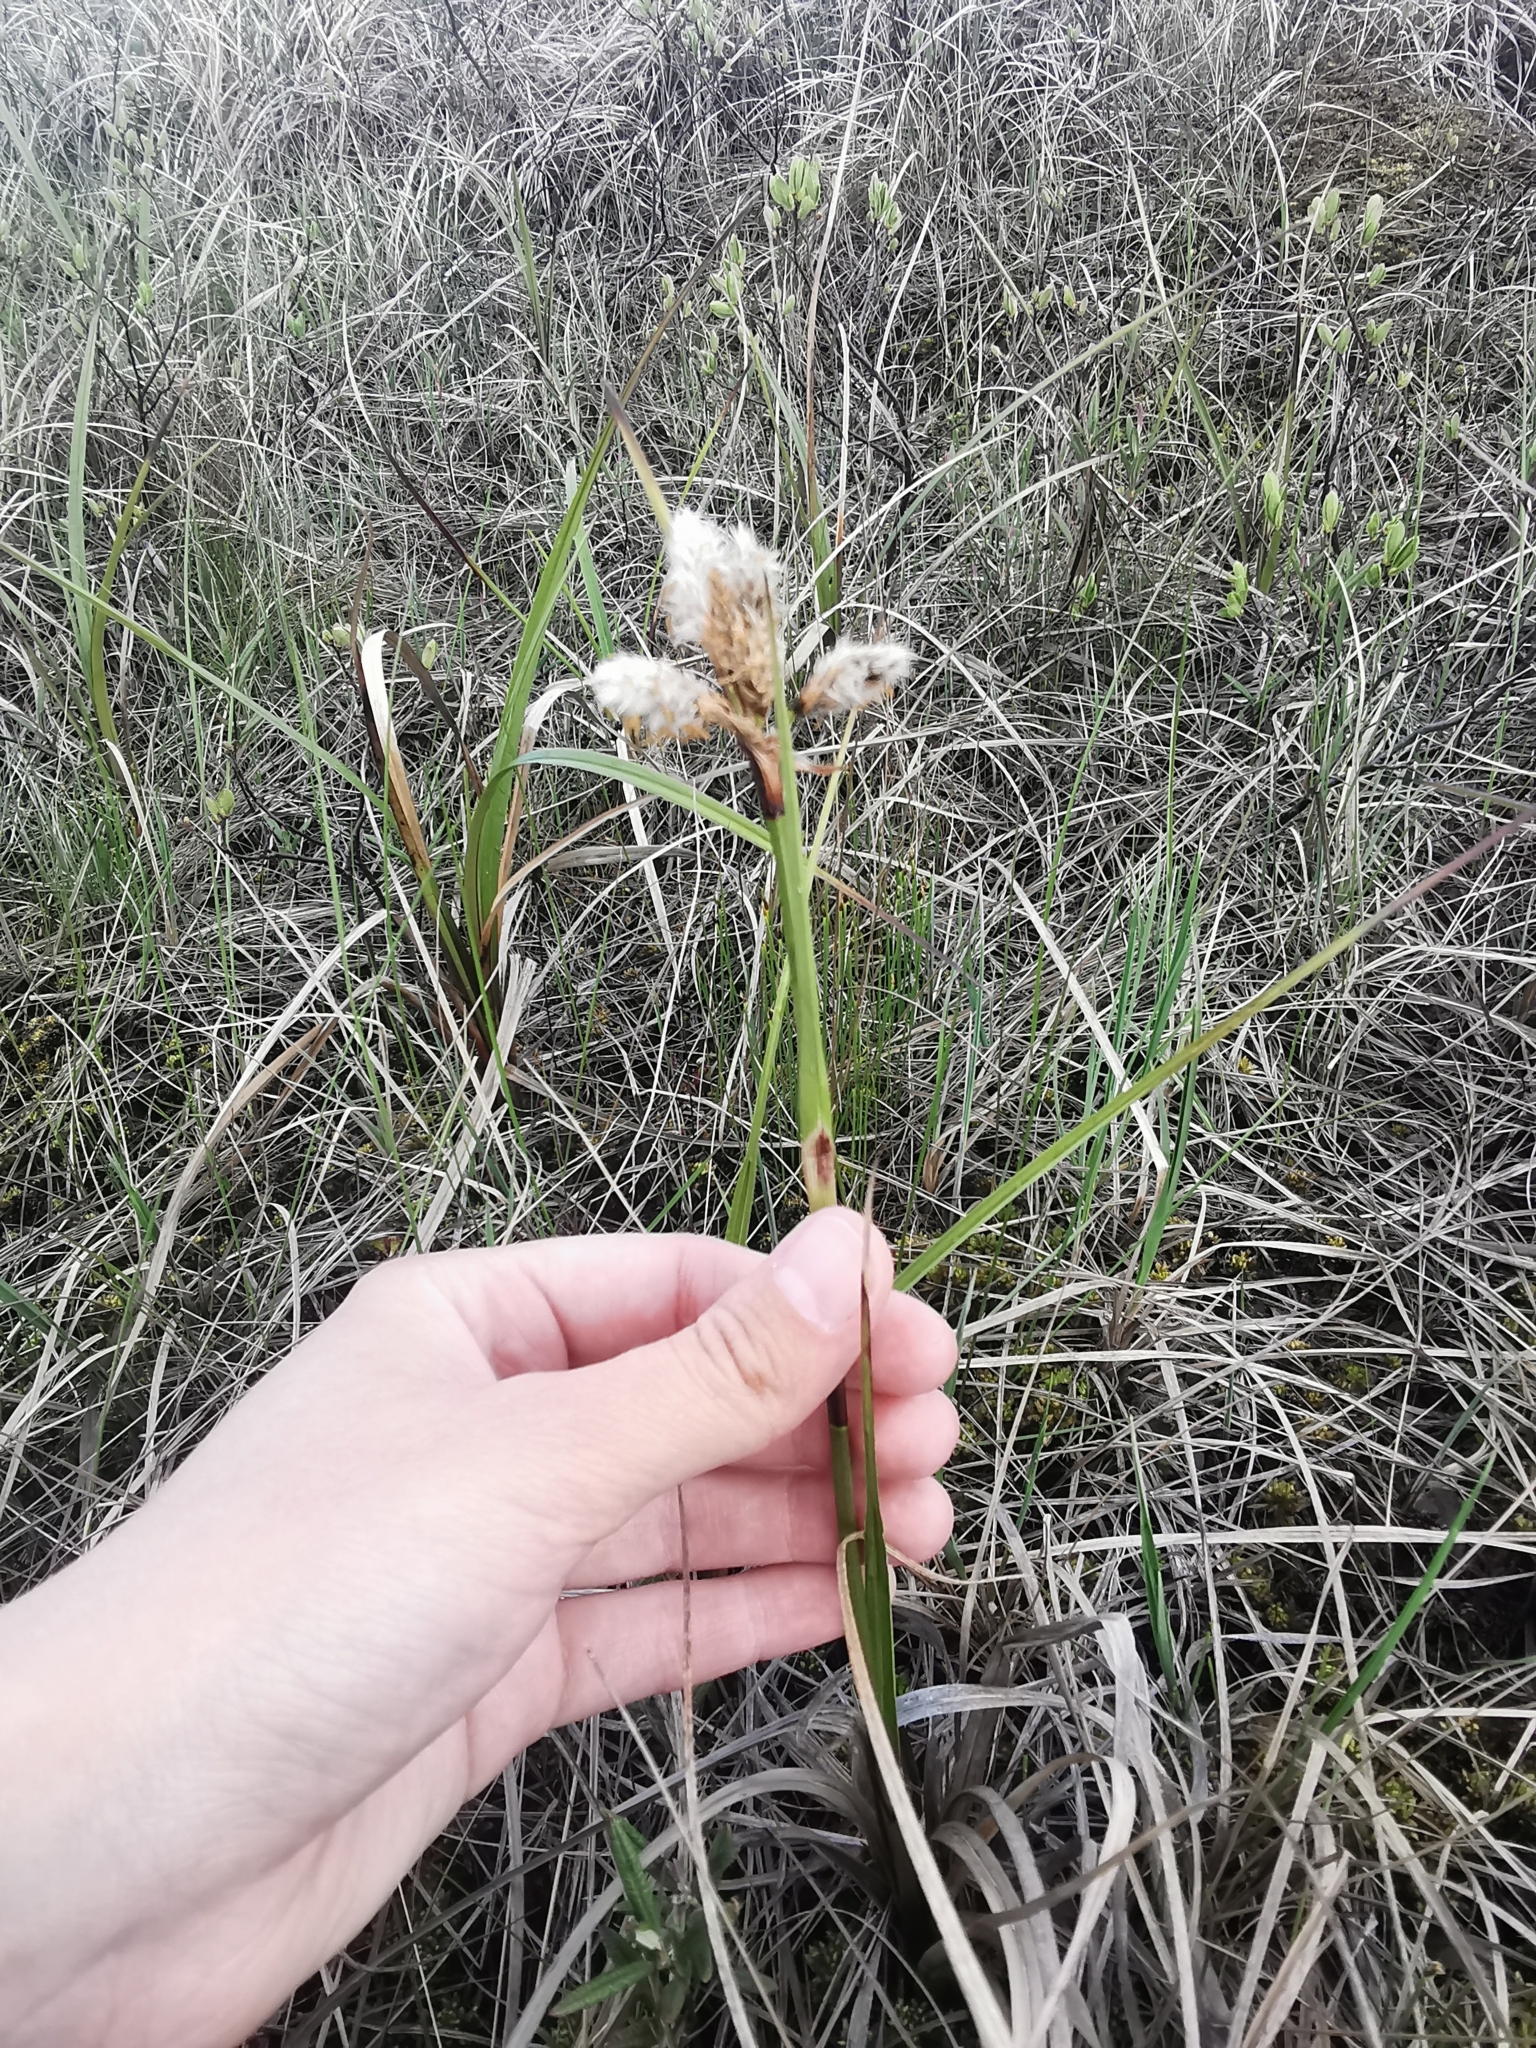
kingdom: Plantae
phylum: Tracheophyta
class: Liliopsida
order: Poales
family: Cyperaceae
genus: Eriophorum
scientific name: Eriophorum angustifolium
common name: Common cottongrass
